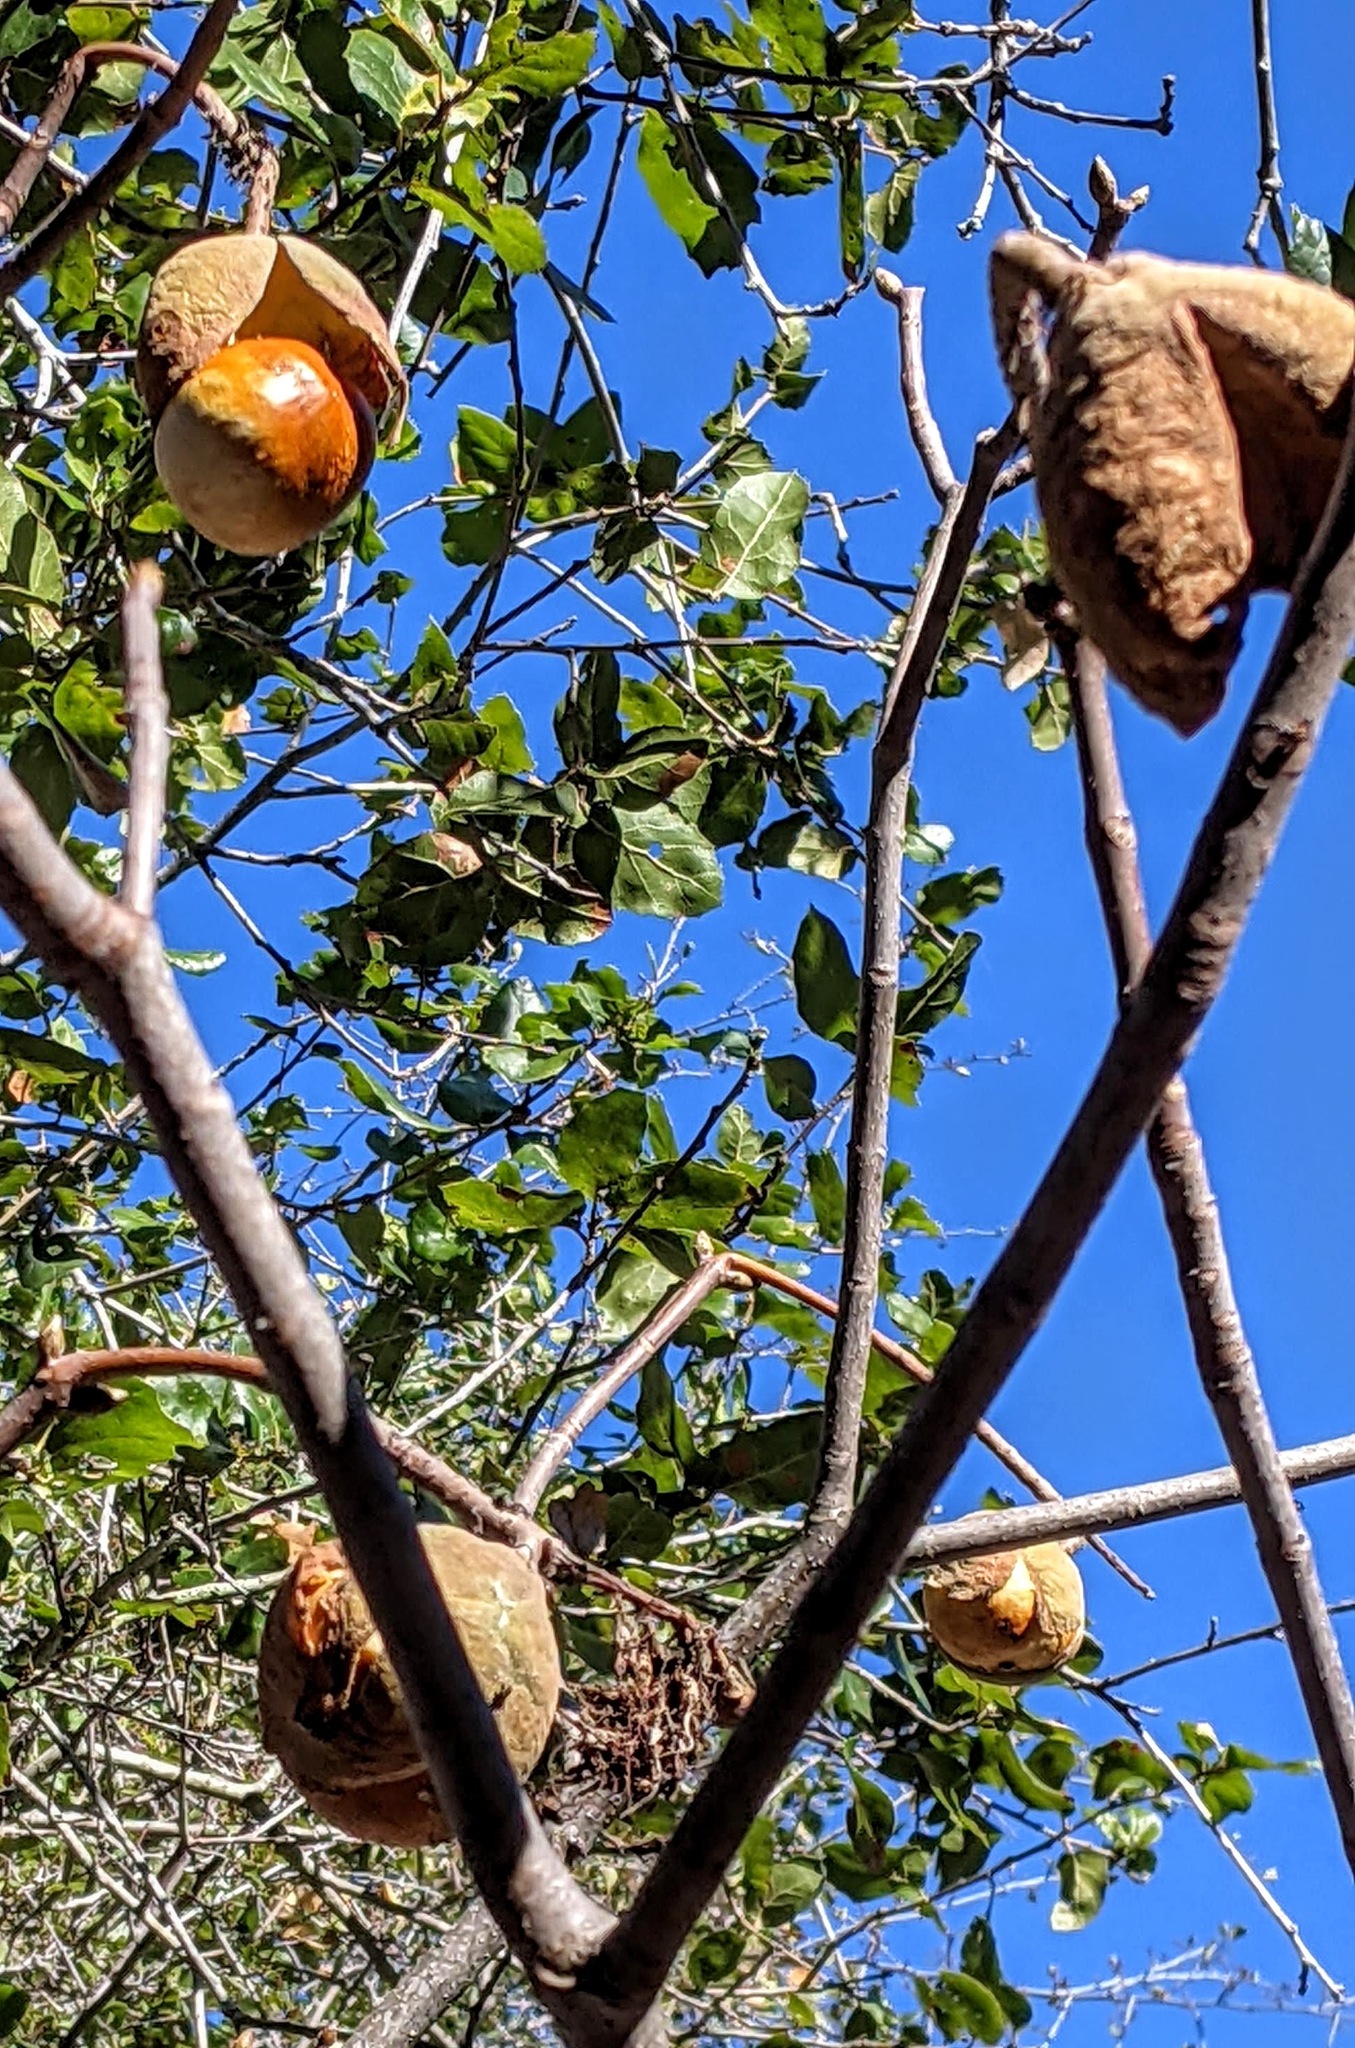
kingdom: Plantae
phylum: Tracheophyta
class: Magnoliopsida
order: Sapindales
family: Sapindaceae
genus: Aesculus
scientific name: Aesculus californica
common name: California buckeye
